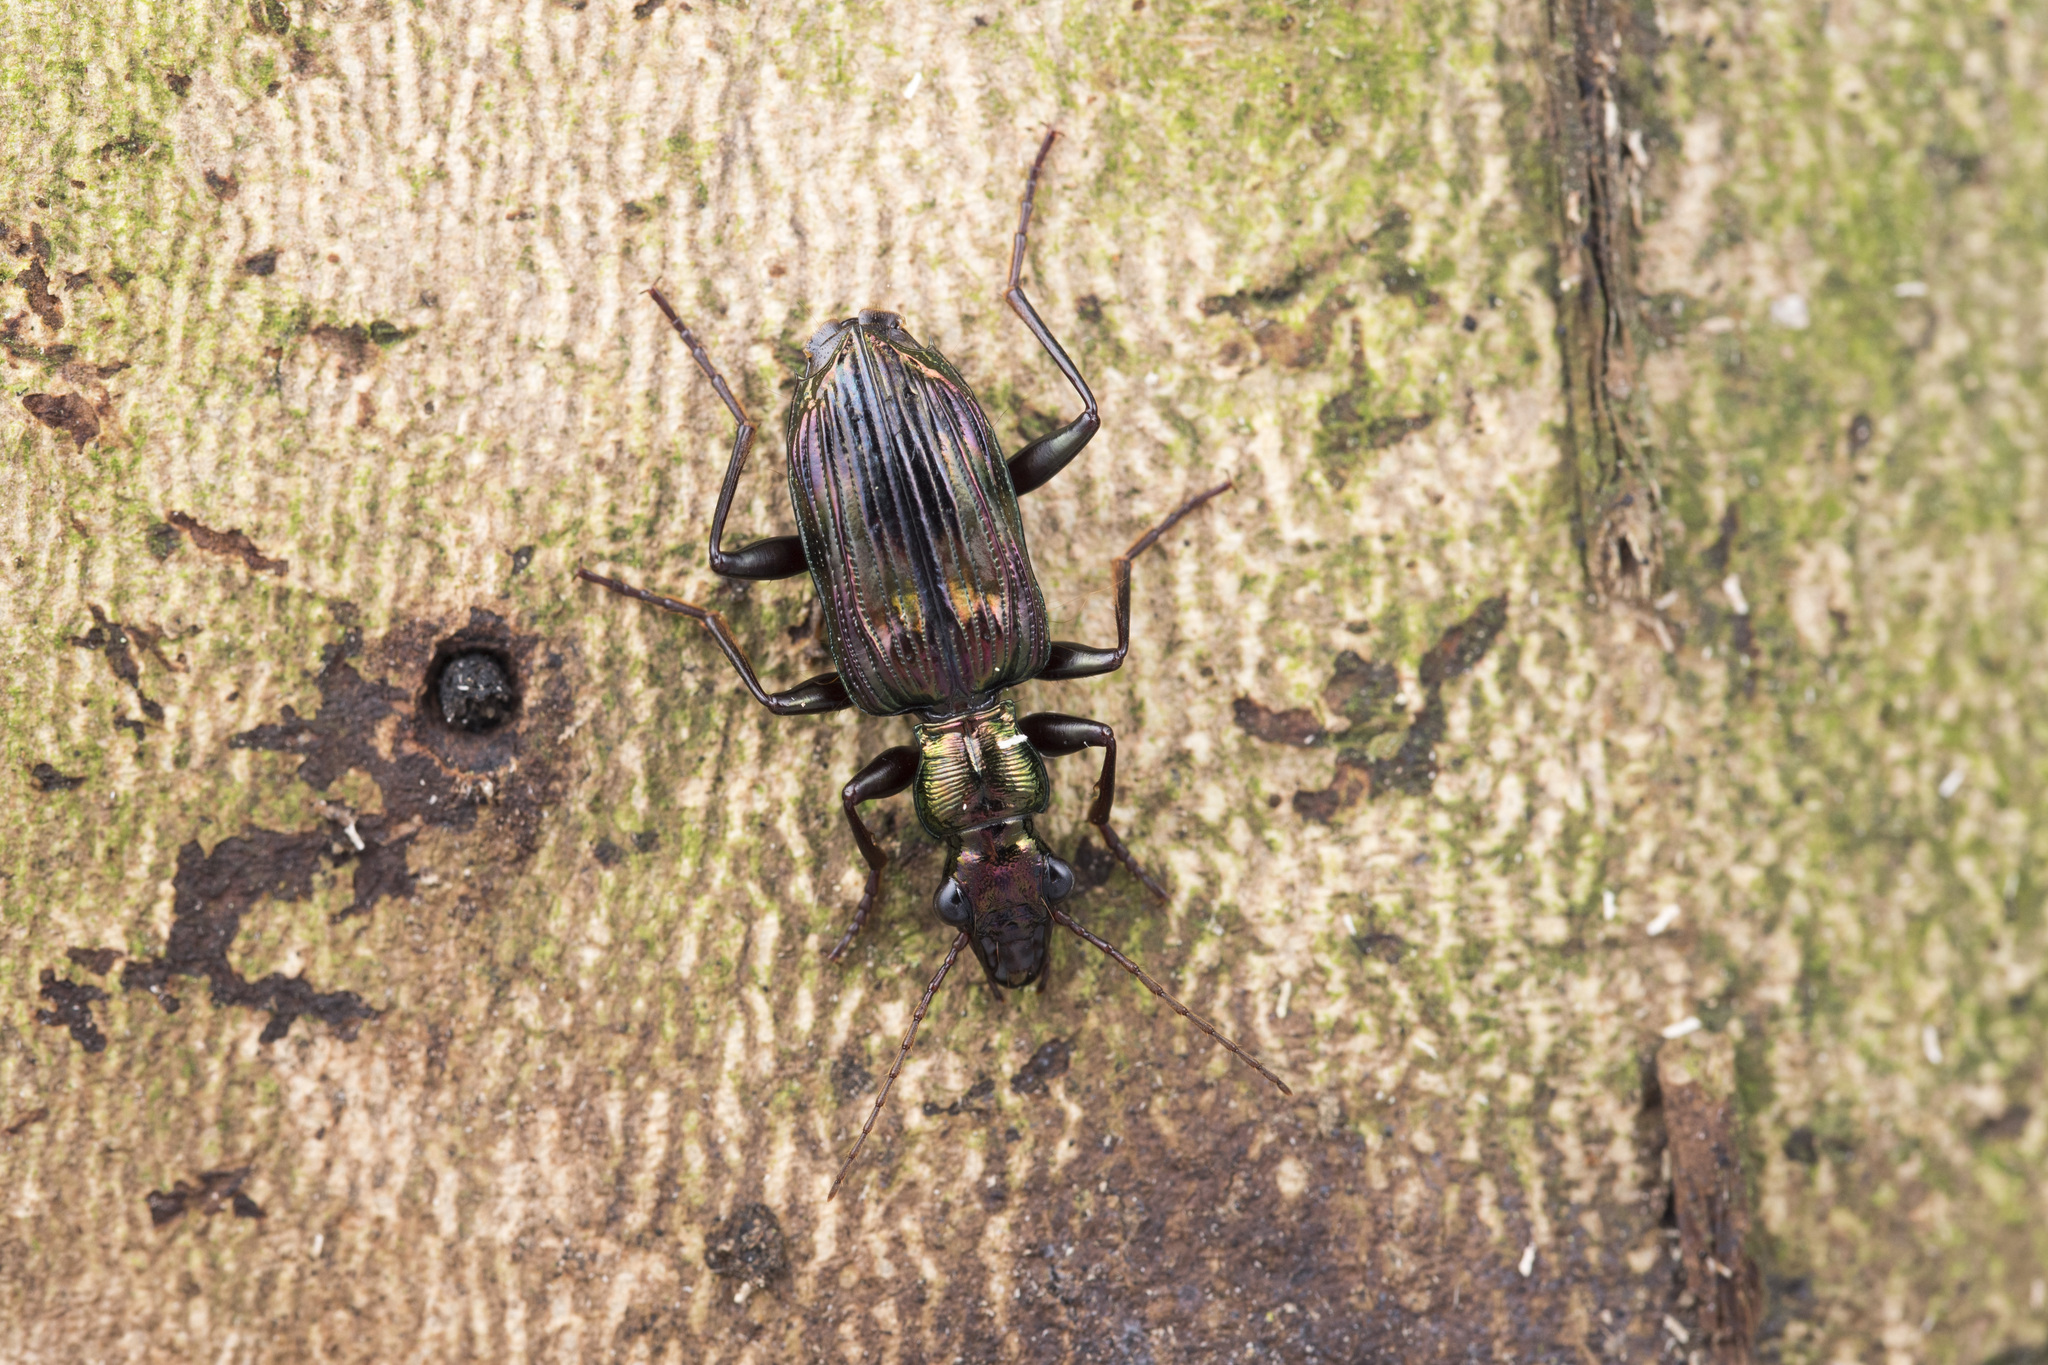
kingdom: Animalia
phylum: Arthropoda
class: Insecta
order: Coleoptera
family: Carabidae
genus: Catascopus
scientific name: Catascopus sauteri
